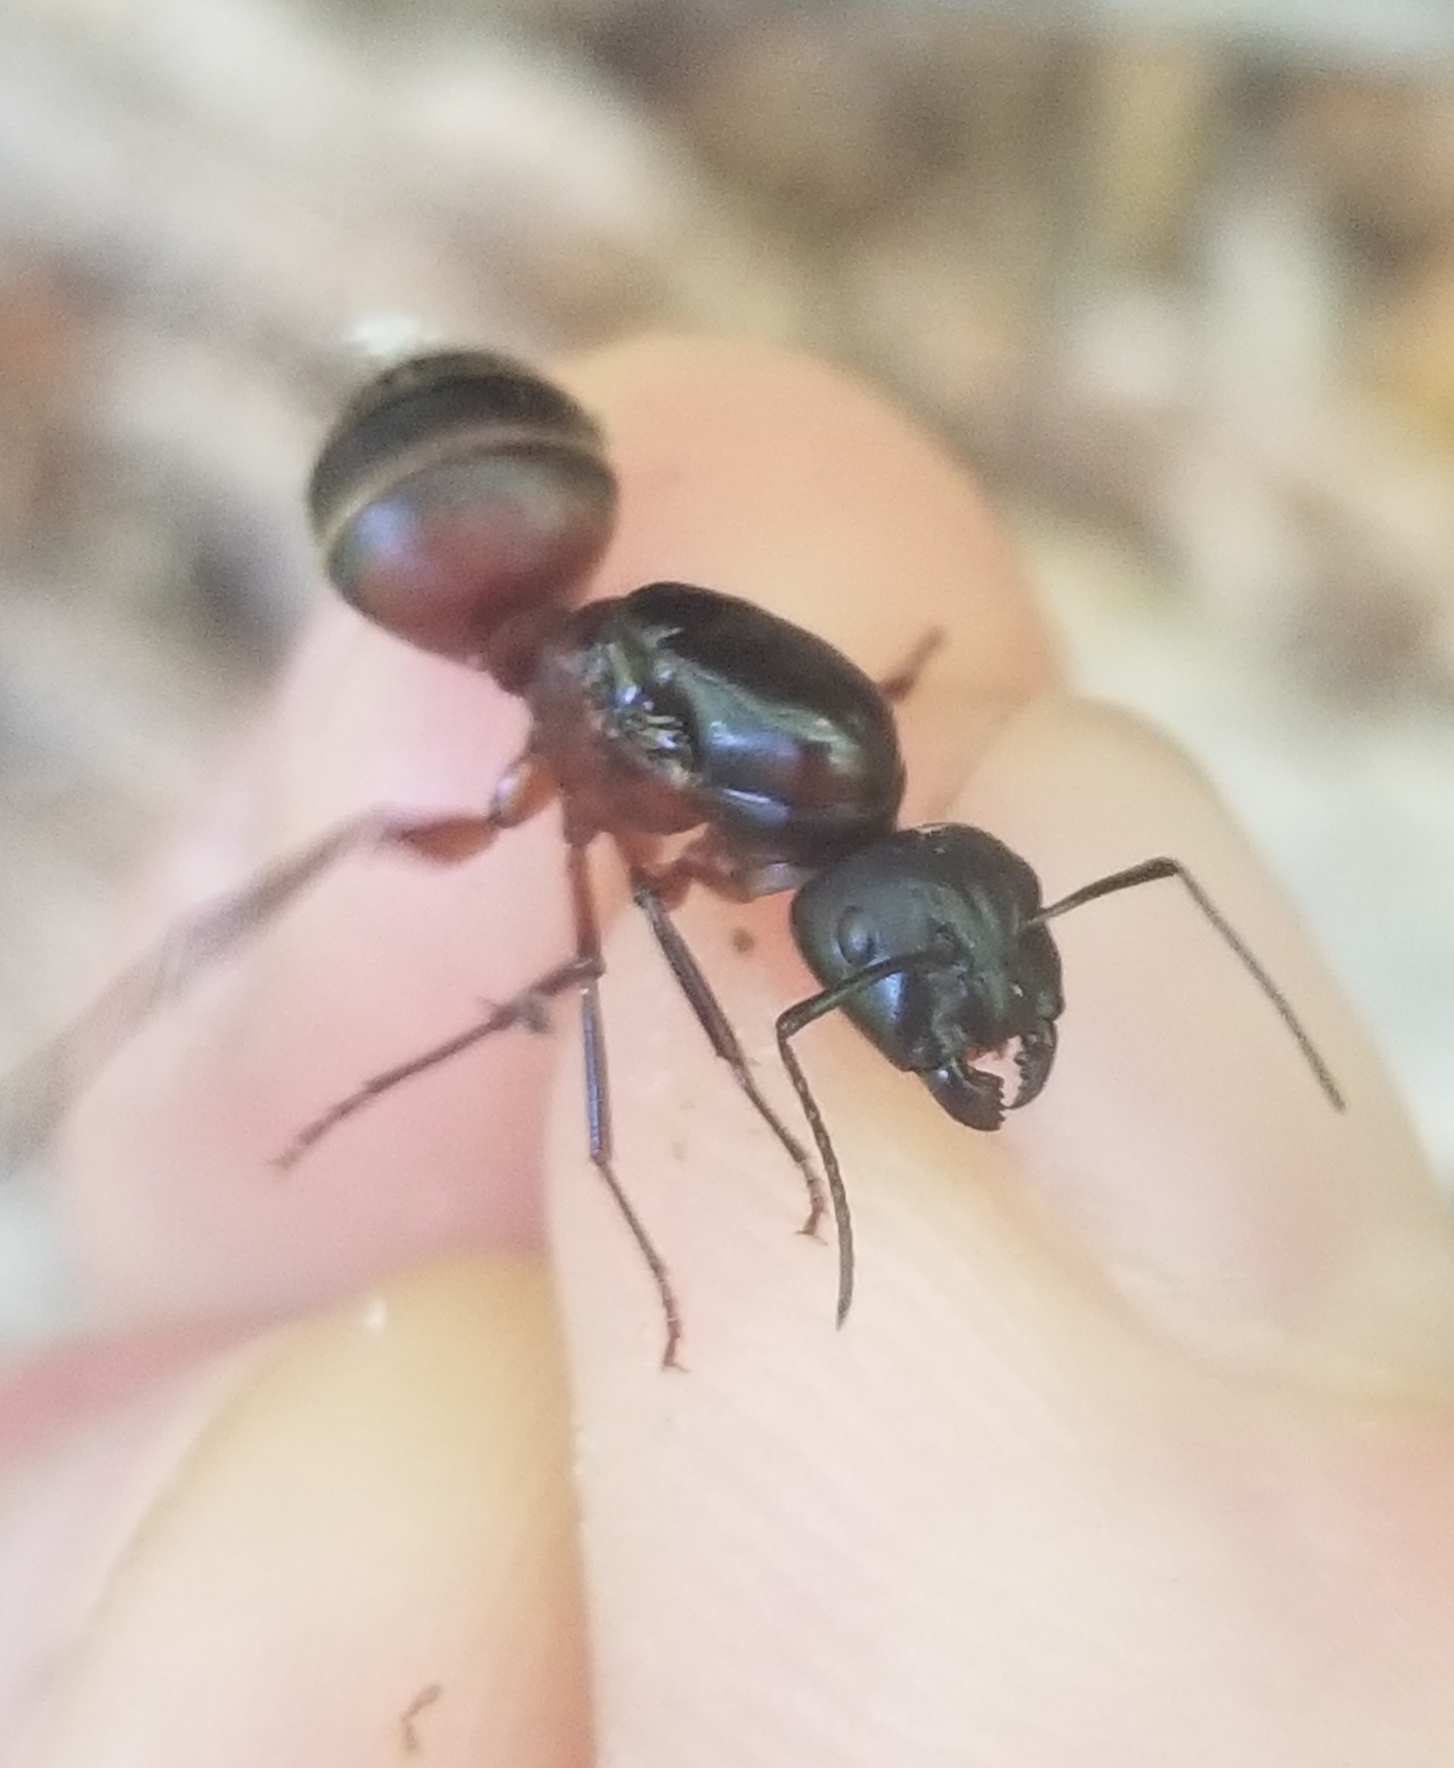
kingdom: Animalia
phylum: Arthropoda
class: Insecta
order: Hymenoptera
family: Formicidae
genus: Camponotus
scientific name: Camponotus chromaiodes
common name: Red carpenter ant
